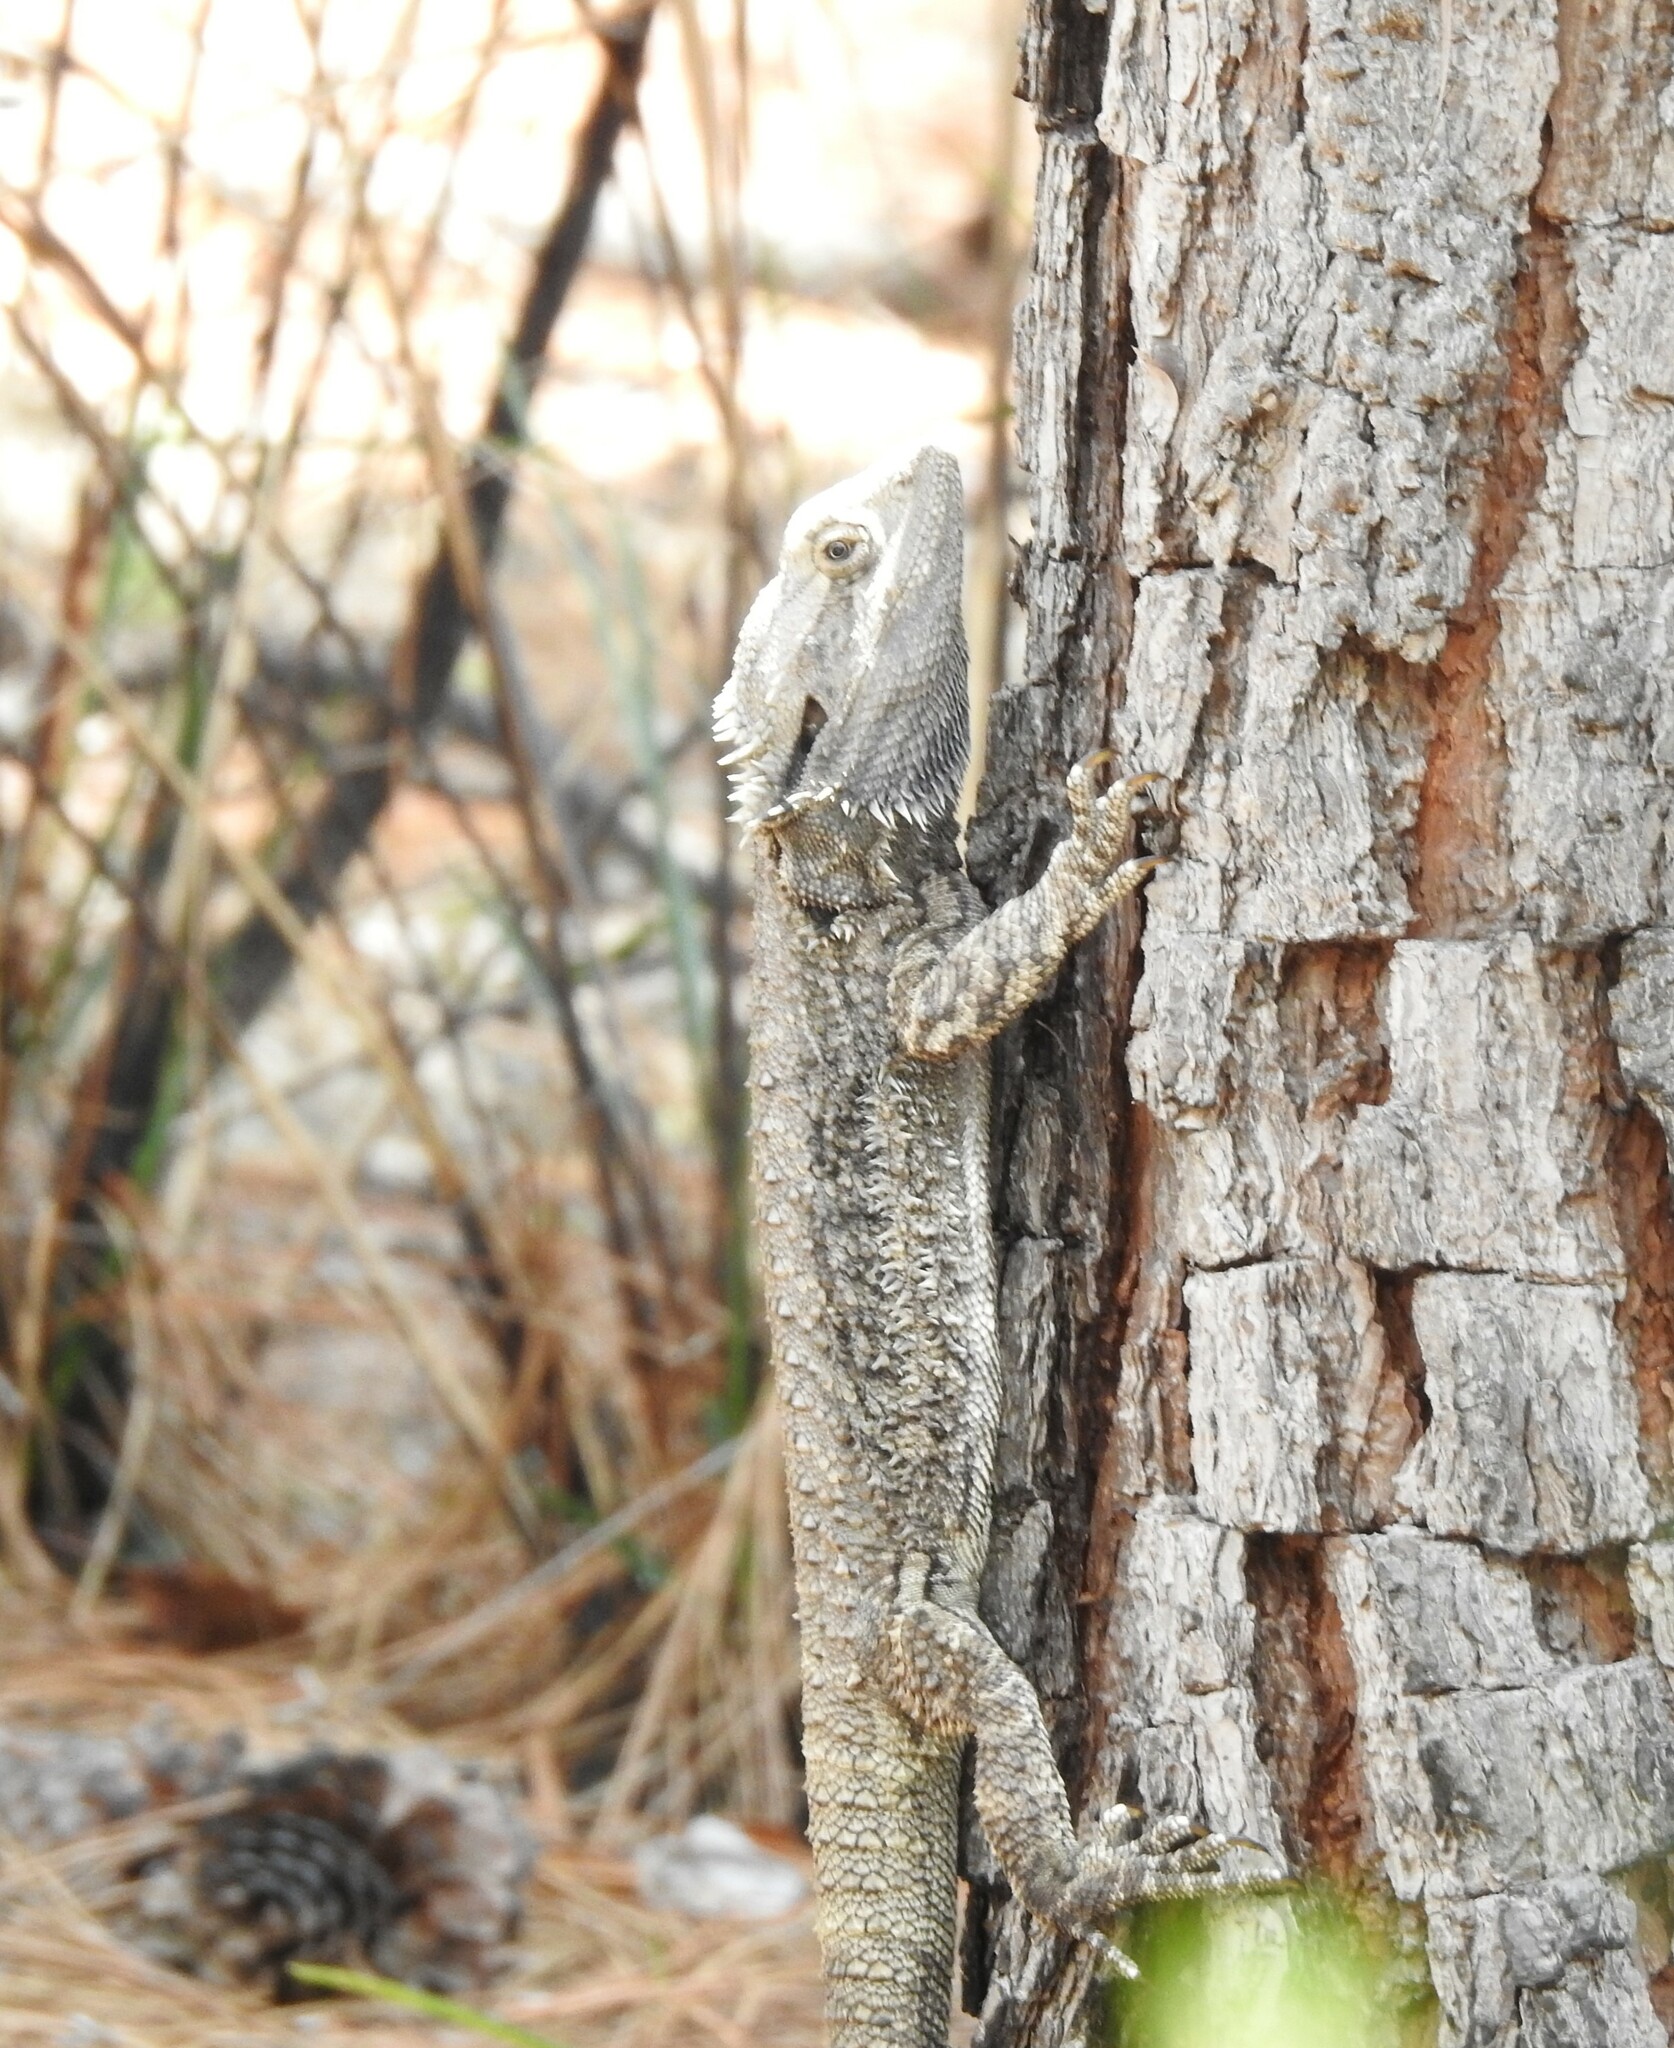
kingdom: Animalia
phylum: Chordata
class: Squamata
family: Agamidae
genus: Pogona
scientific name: Pogona barbata
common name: Bearded dragon
